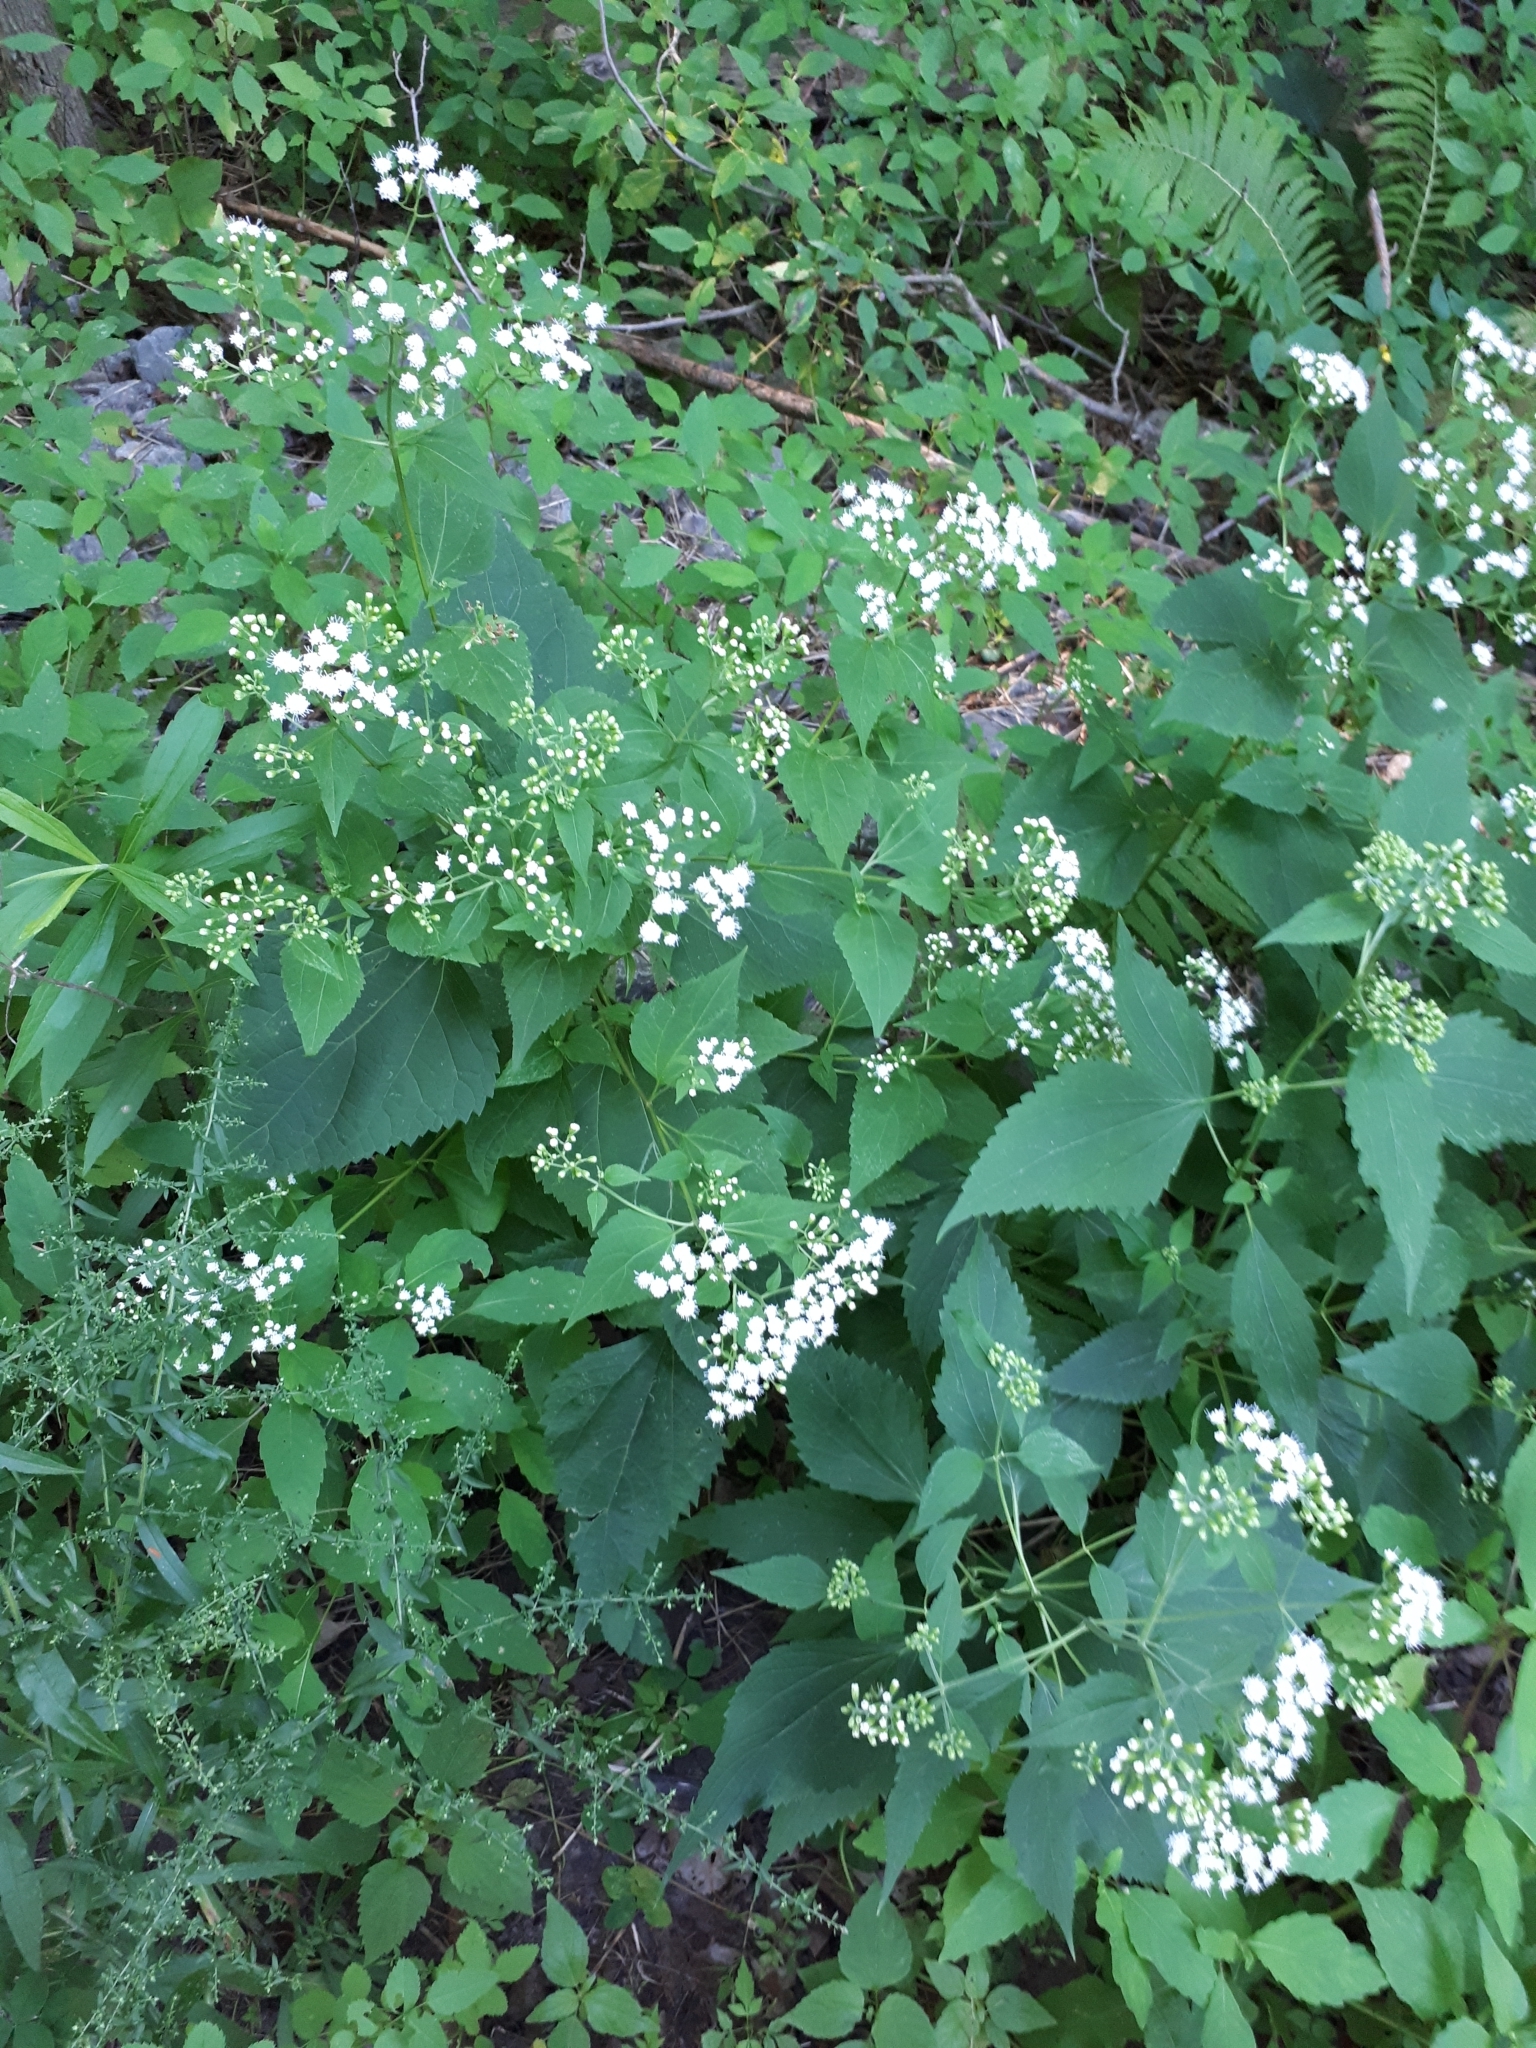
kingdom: Plantae
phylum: Tracheophyta
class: Magnoliopsida
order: Asterales
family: Asteraceae
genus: Ageratina
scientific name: Ageratina altissima
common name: White snakeroot
